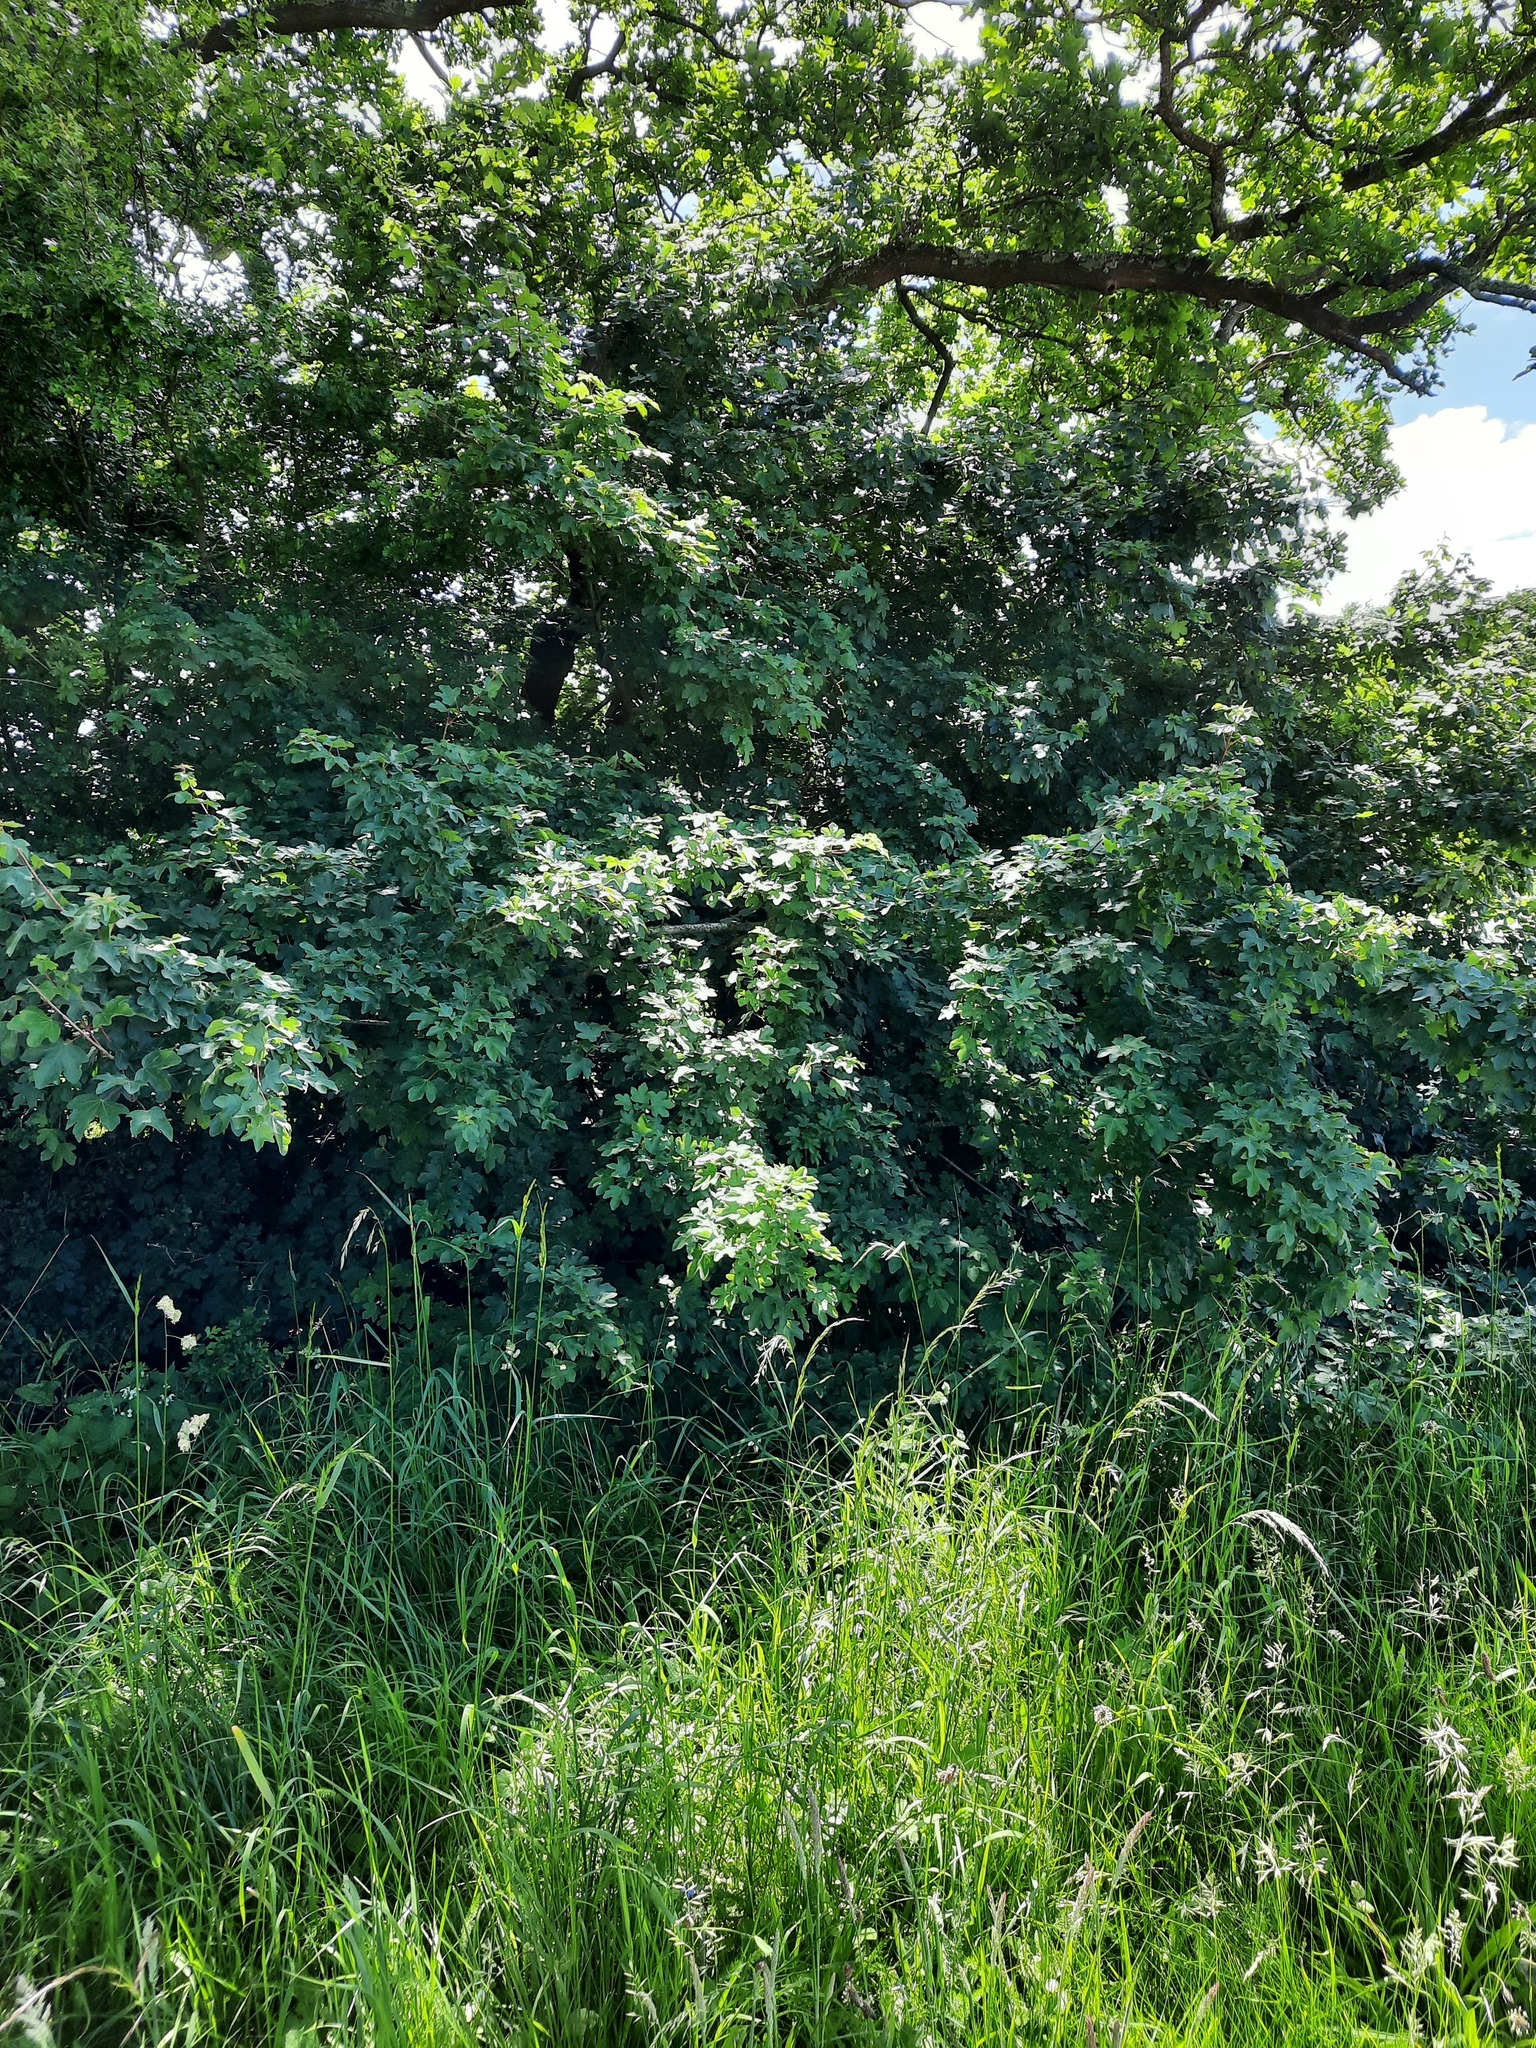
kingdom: Plantae
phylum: Tracheophyta
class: Magnoliopsida
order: Rosales
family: Rosaceae
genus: Crataegus
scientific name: Crataegus monogyna
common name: Hawthorn
